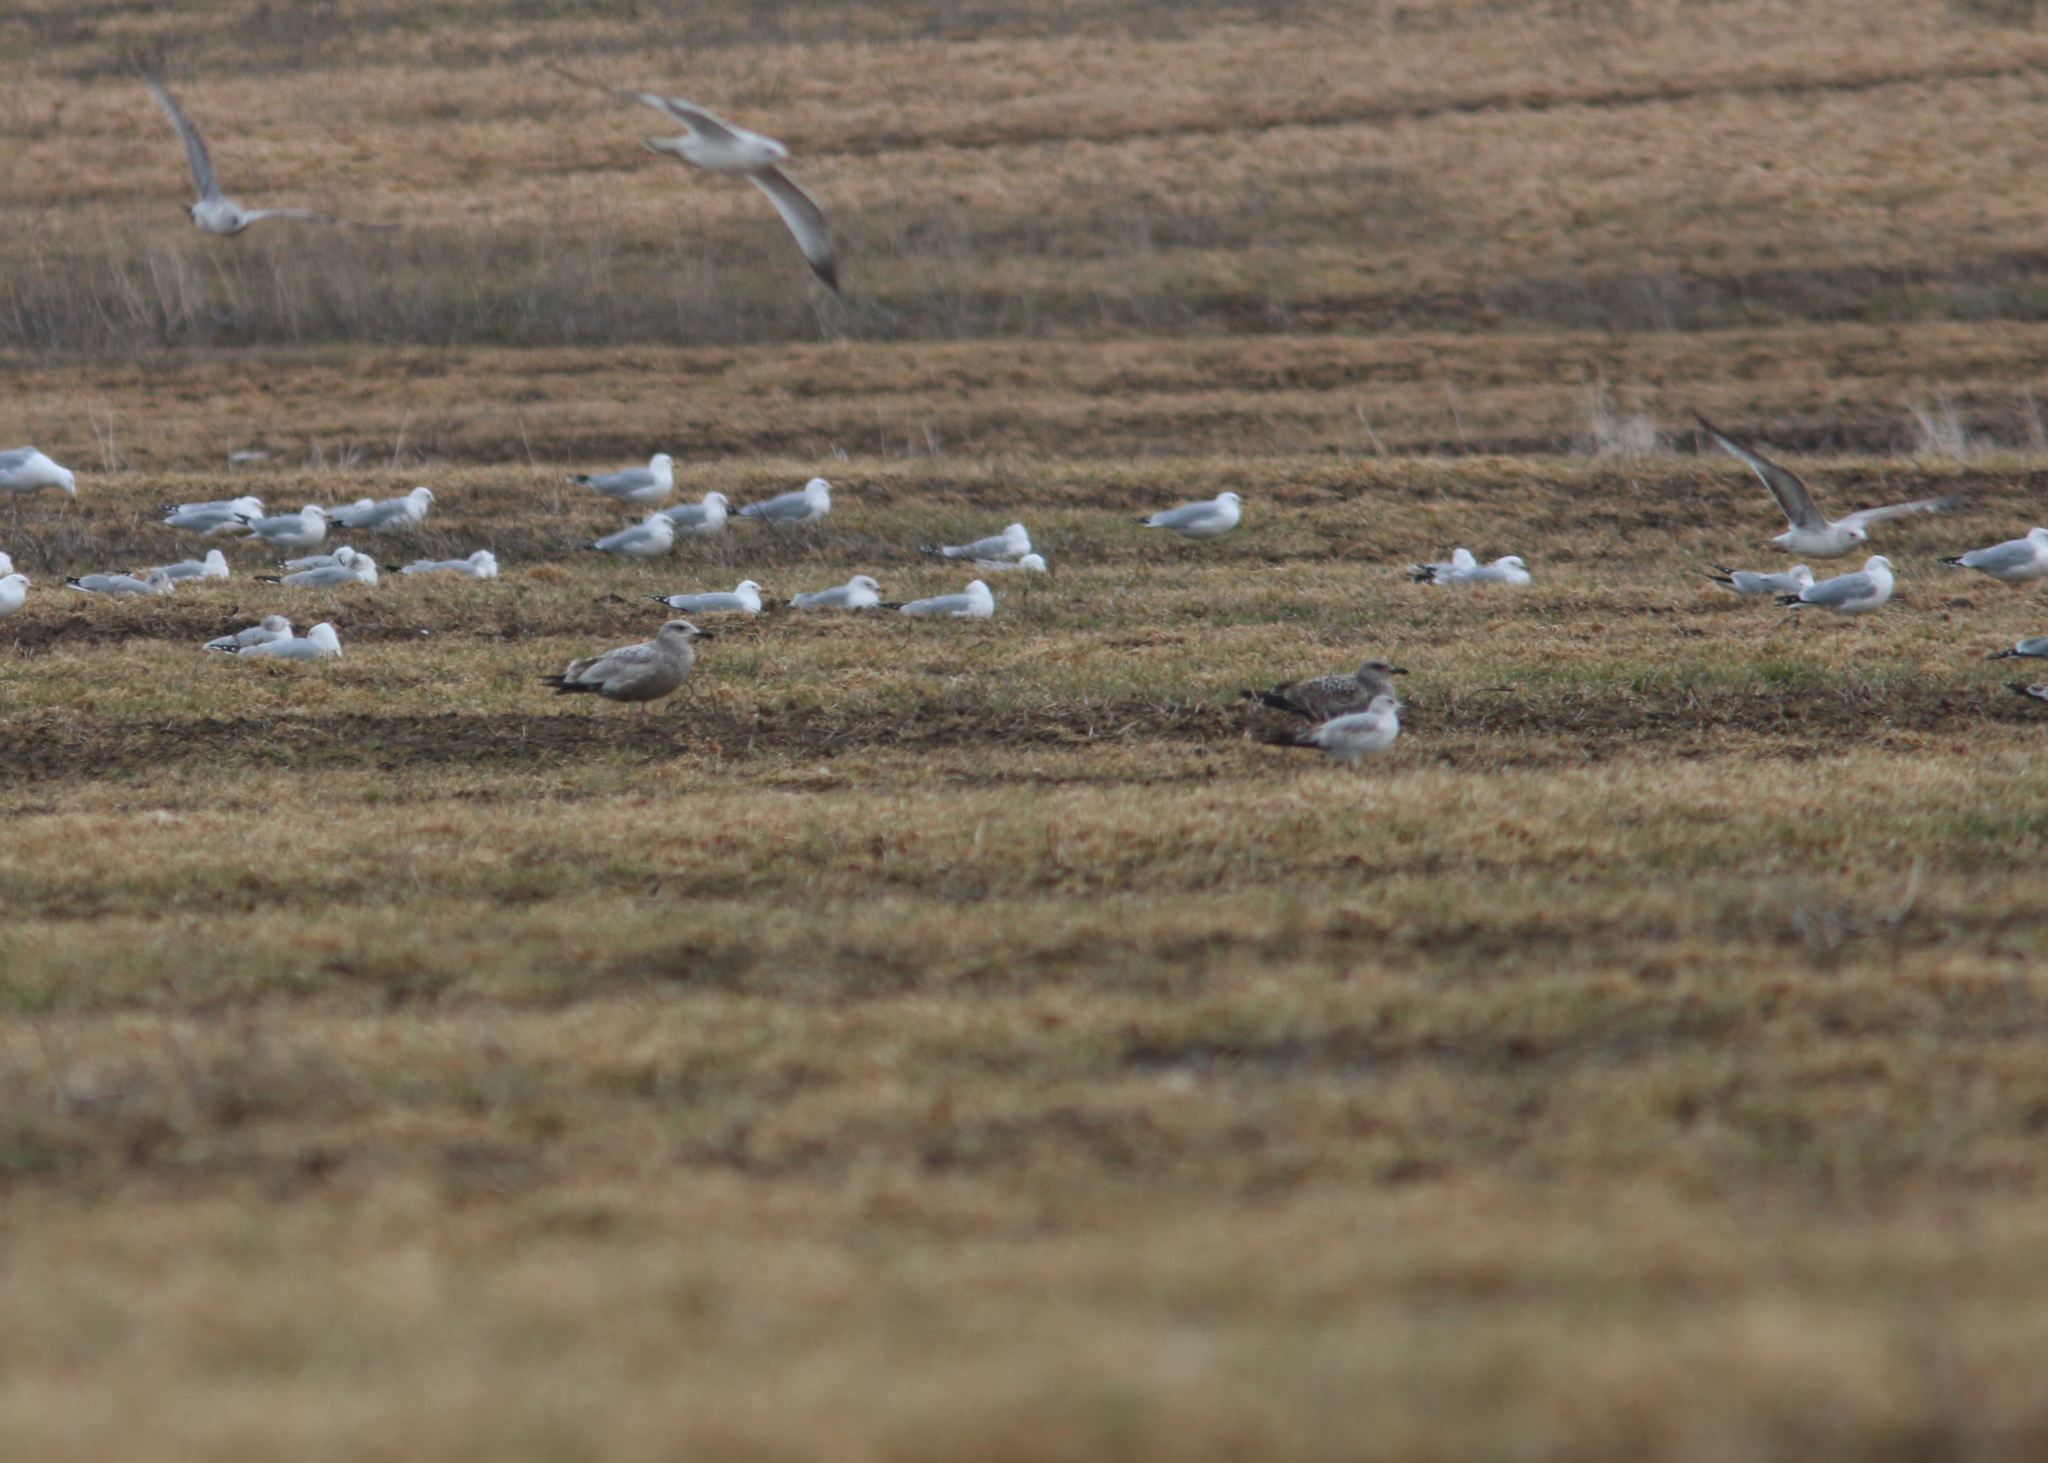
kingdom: Animalia
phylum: Chordata
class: Aves
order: Charadriiformes
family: Laridae
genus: Larus
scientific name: Larus delawarensis
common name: Ring-billed gull
